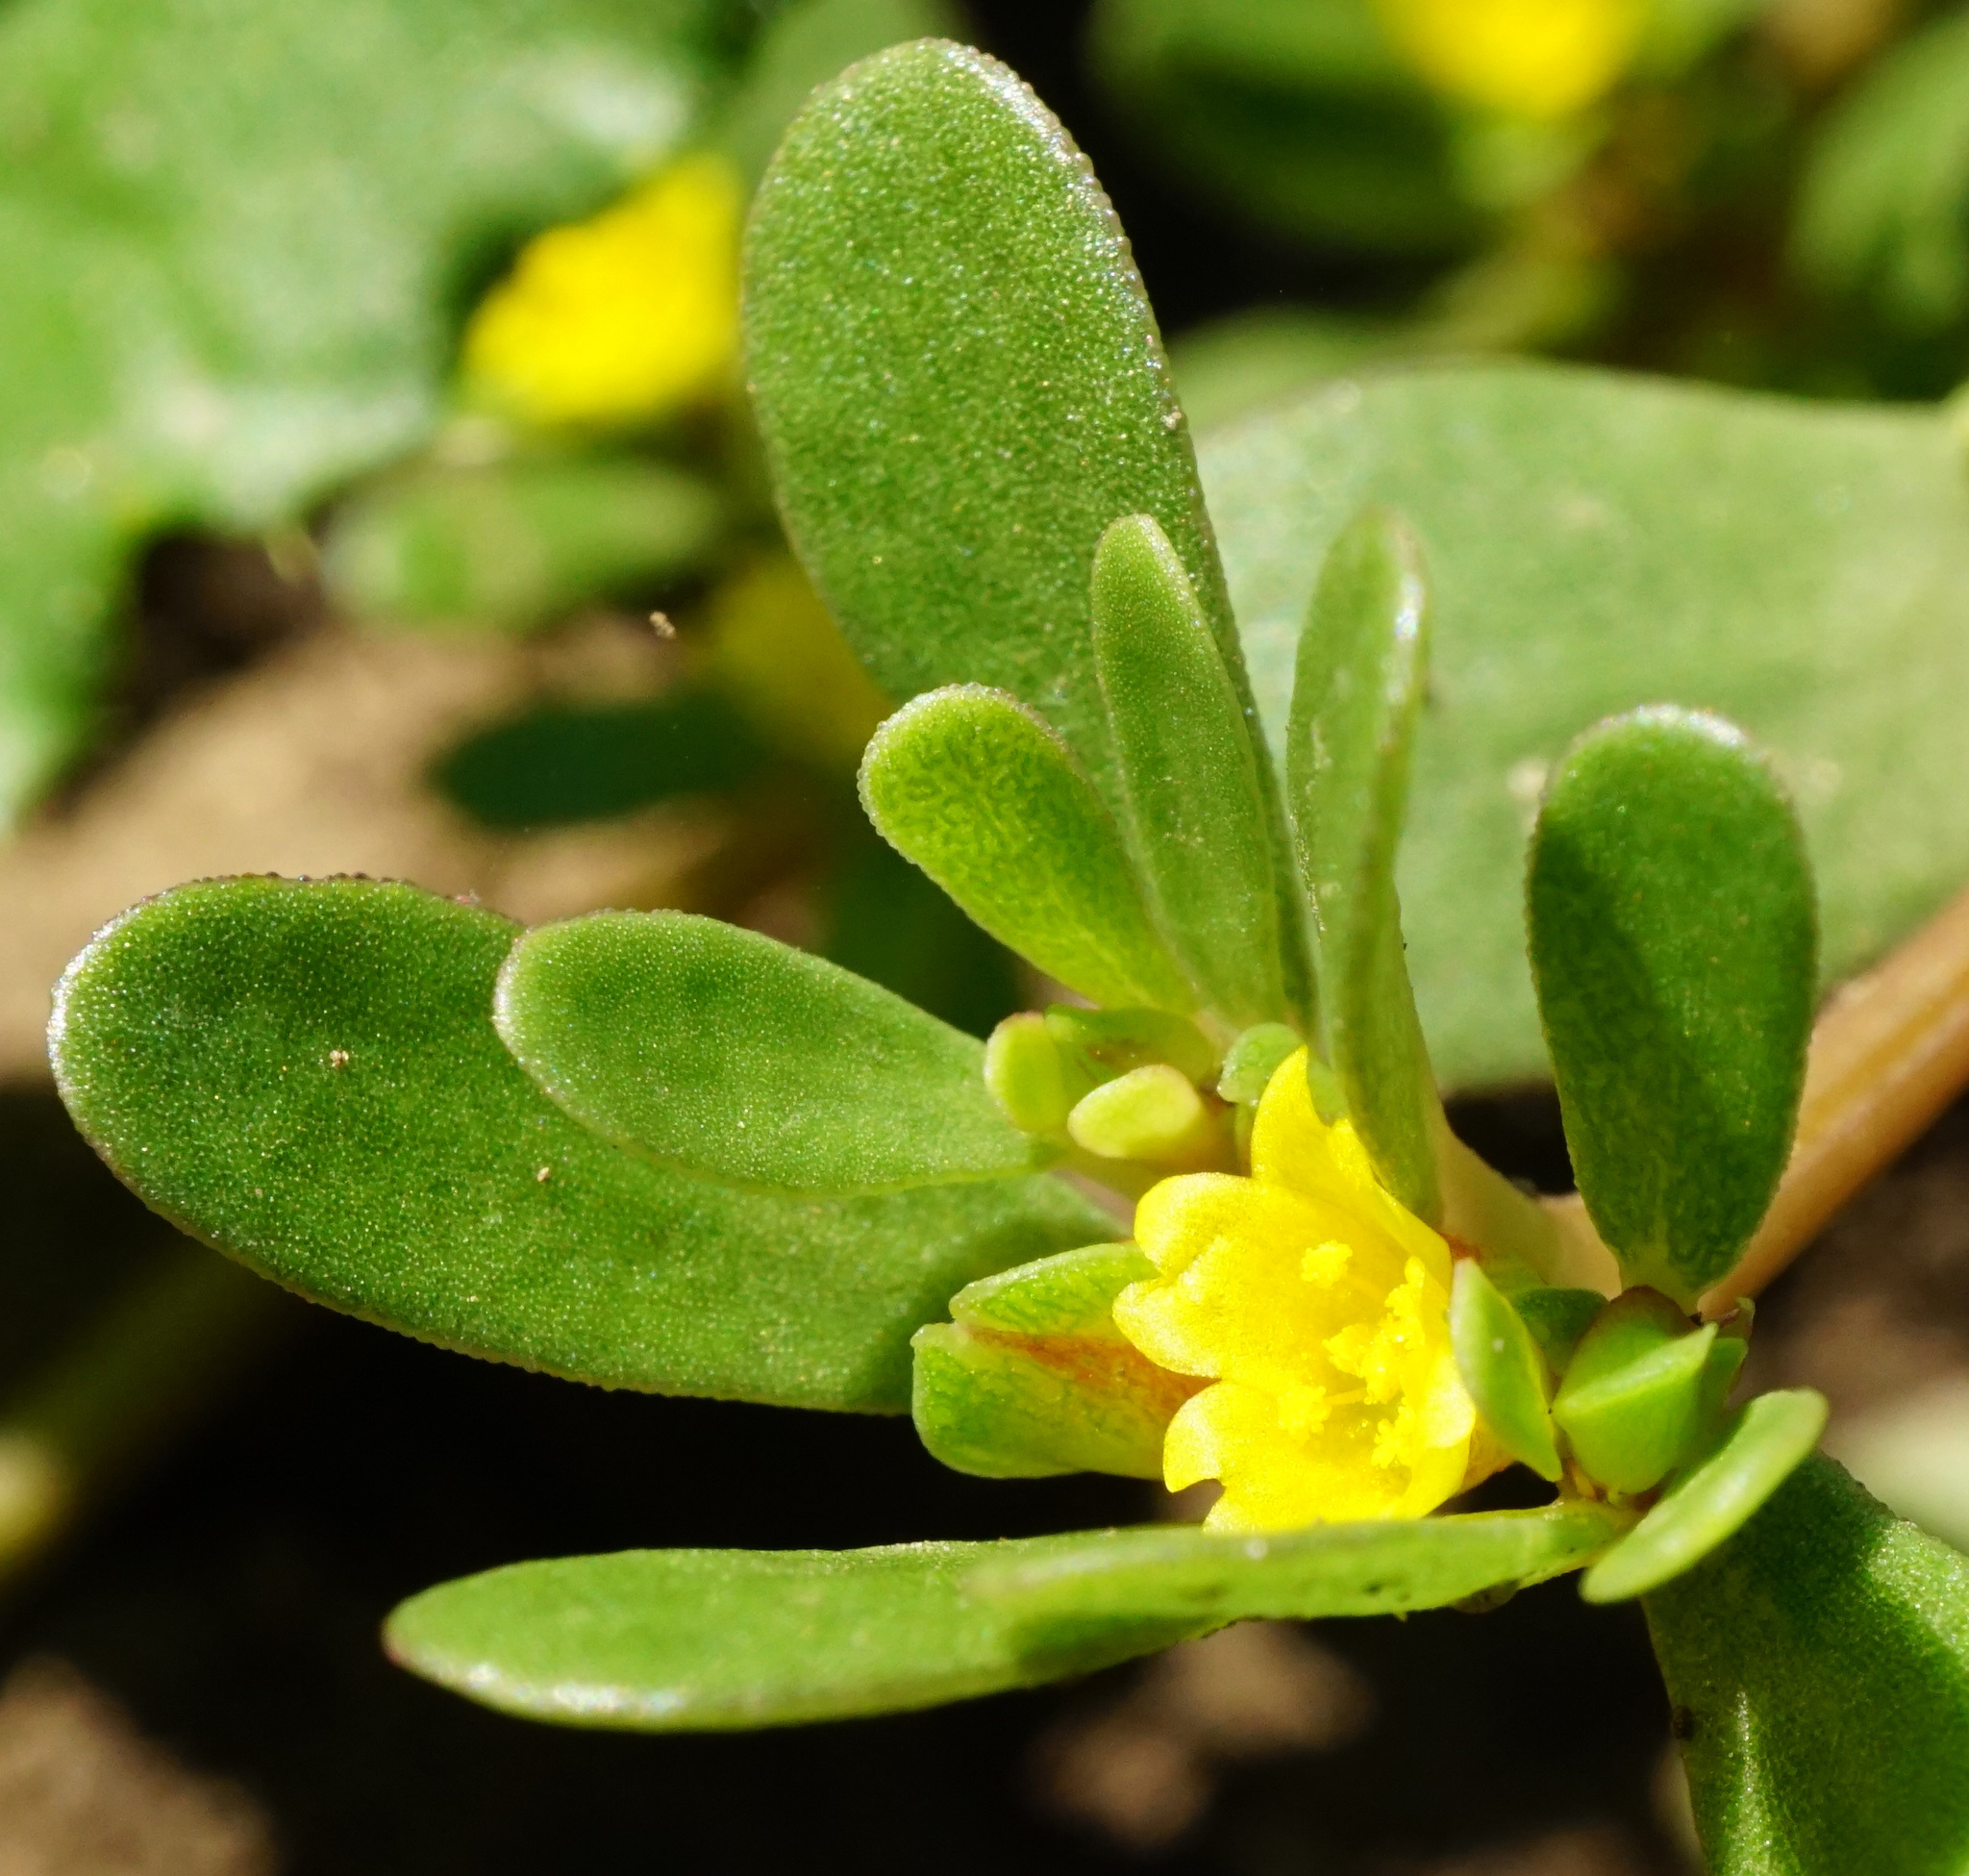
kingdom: Plantae
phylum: Tracheophyta
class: Magnoliopsida
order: Caryophyllales
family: Portulacaceae
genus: Portulaca
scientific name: Portulaca oleracea
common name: Common purslane
